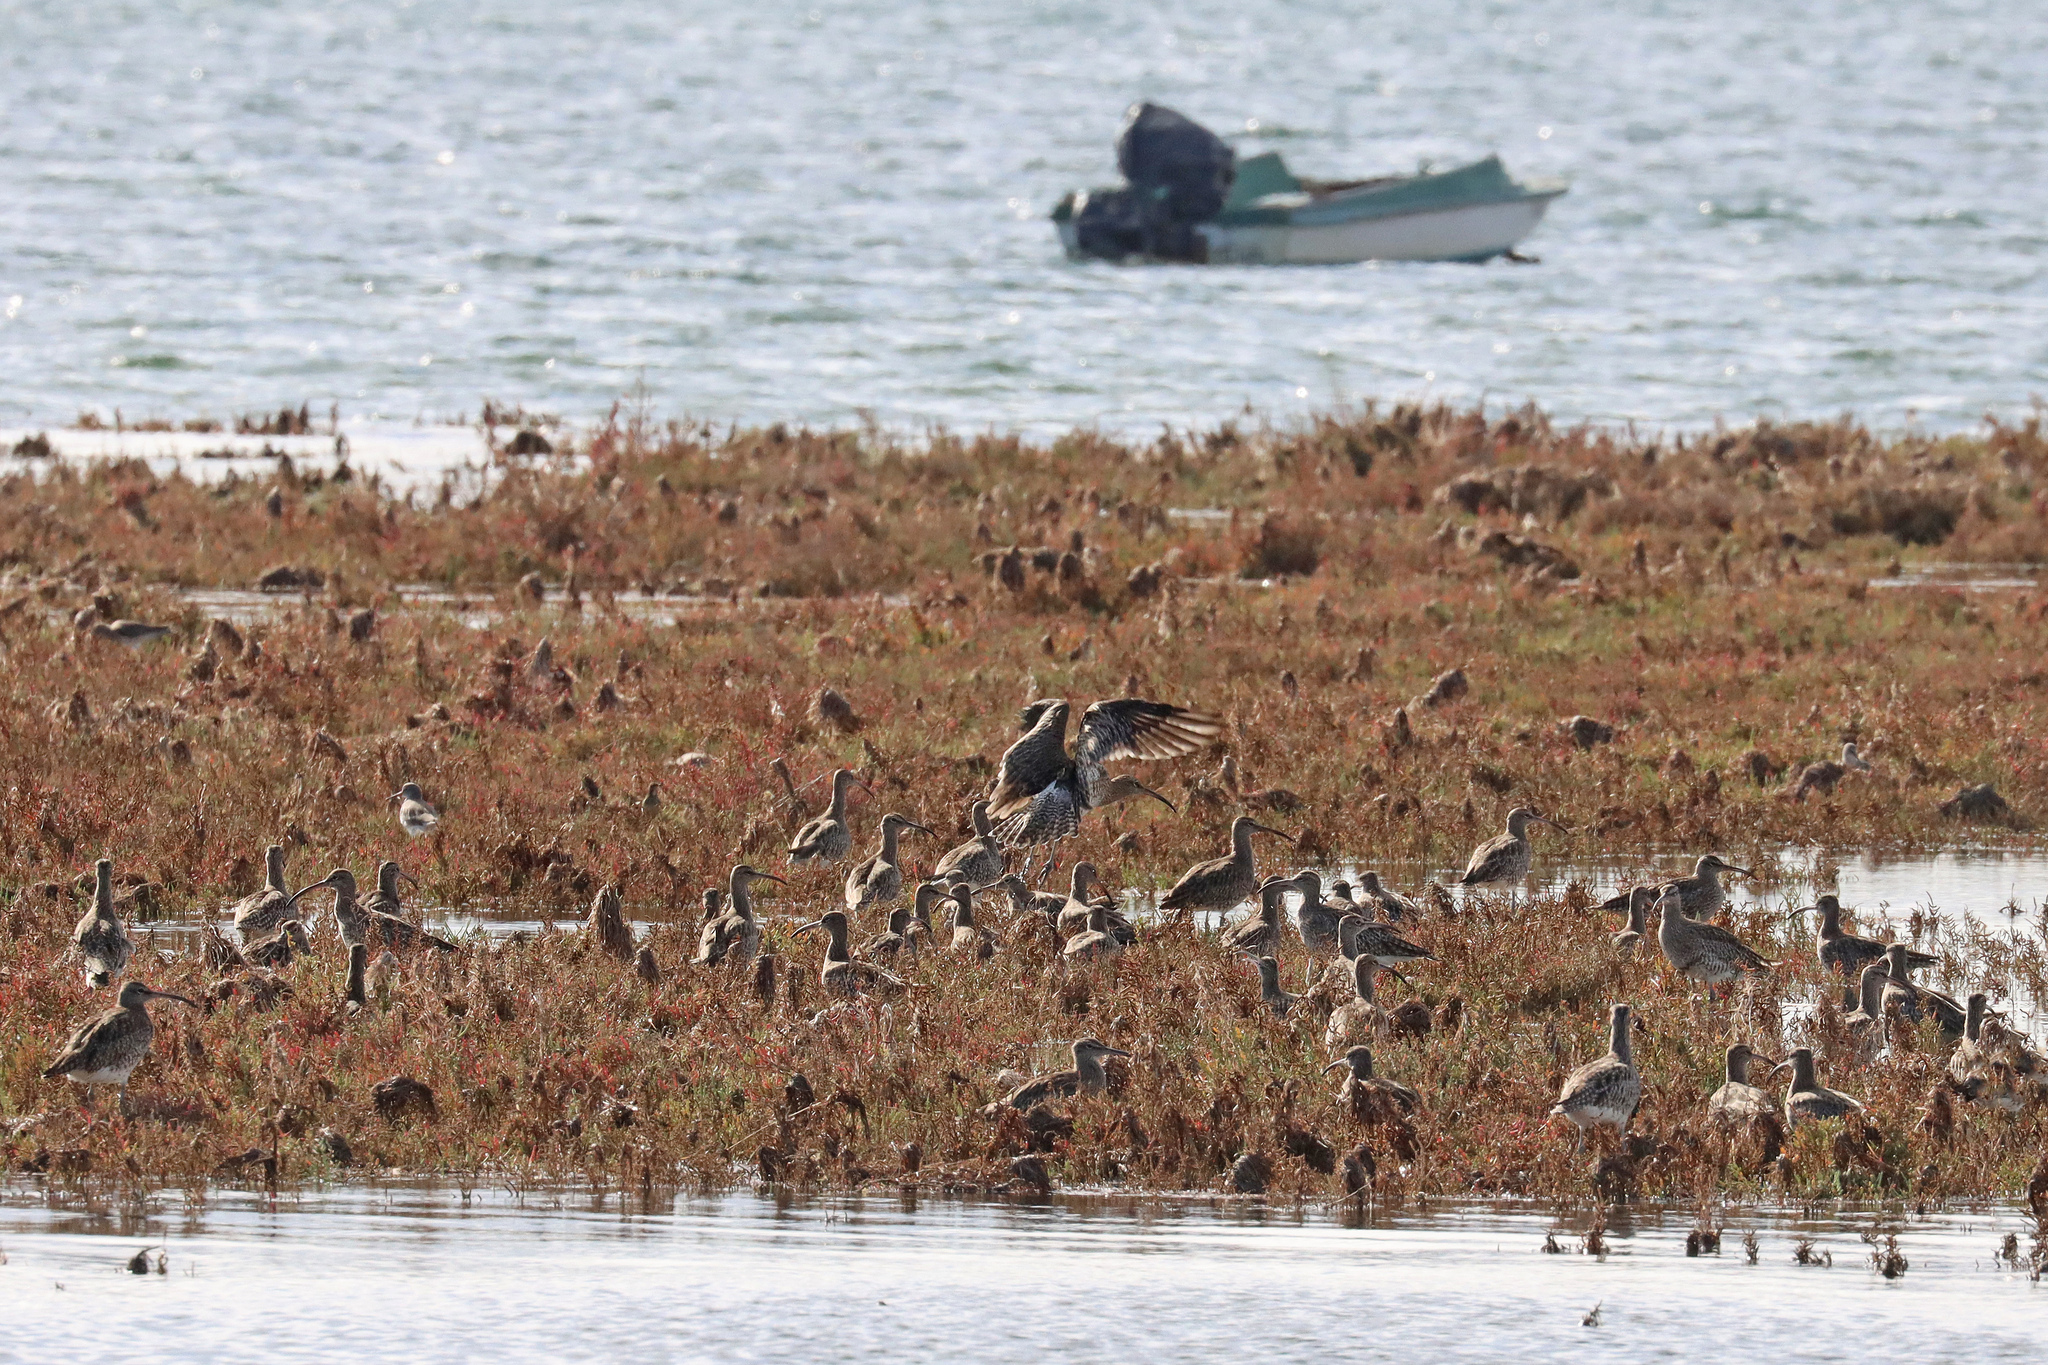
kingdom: Animalia
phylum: Chordata
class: Aves
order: Charadriiformes
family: Scolopacidae
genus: Numenius
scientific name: Numenius phaeopus
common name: Whimbrel
